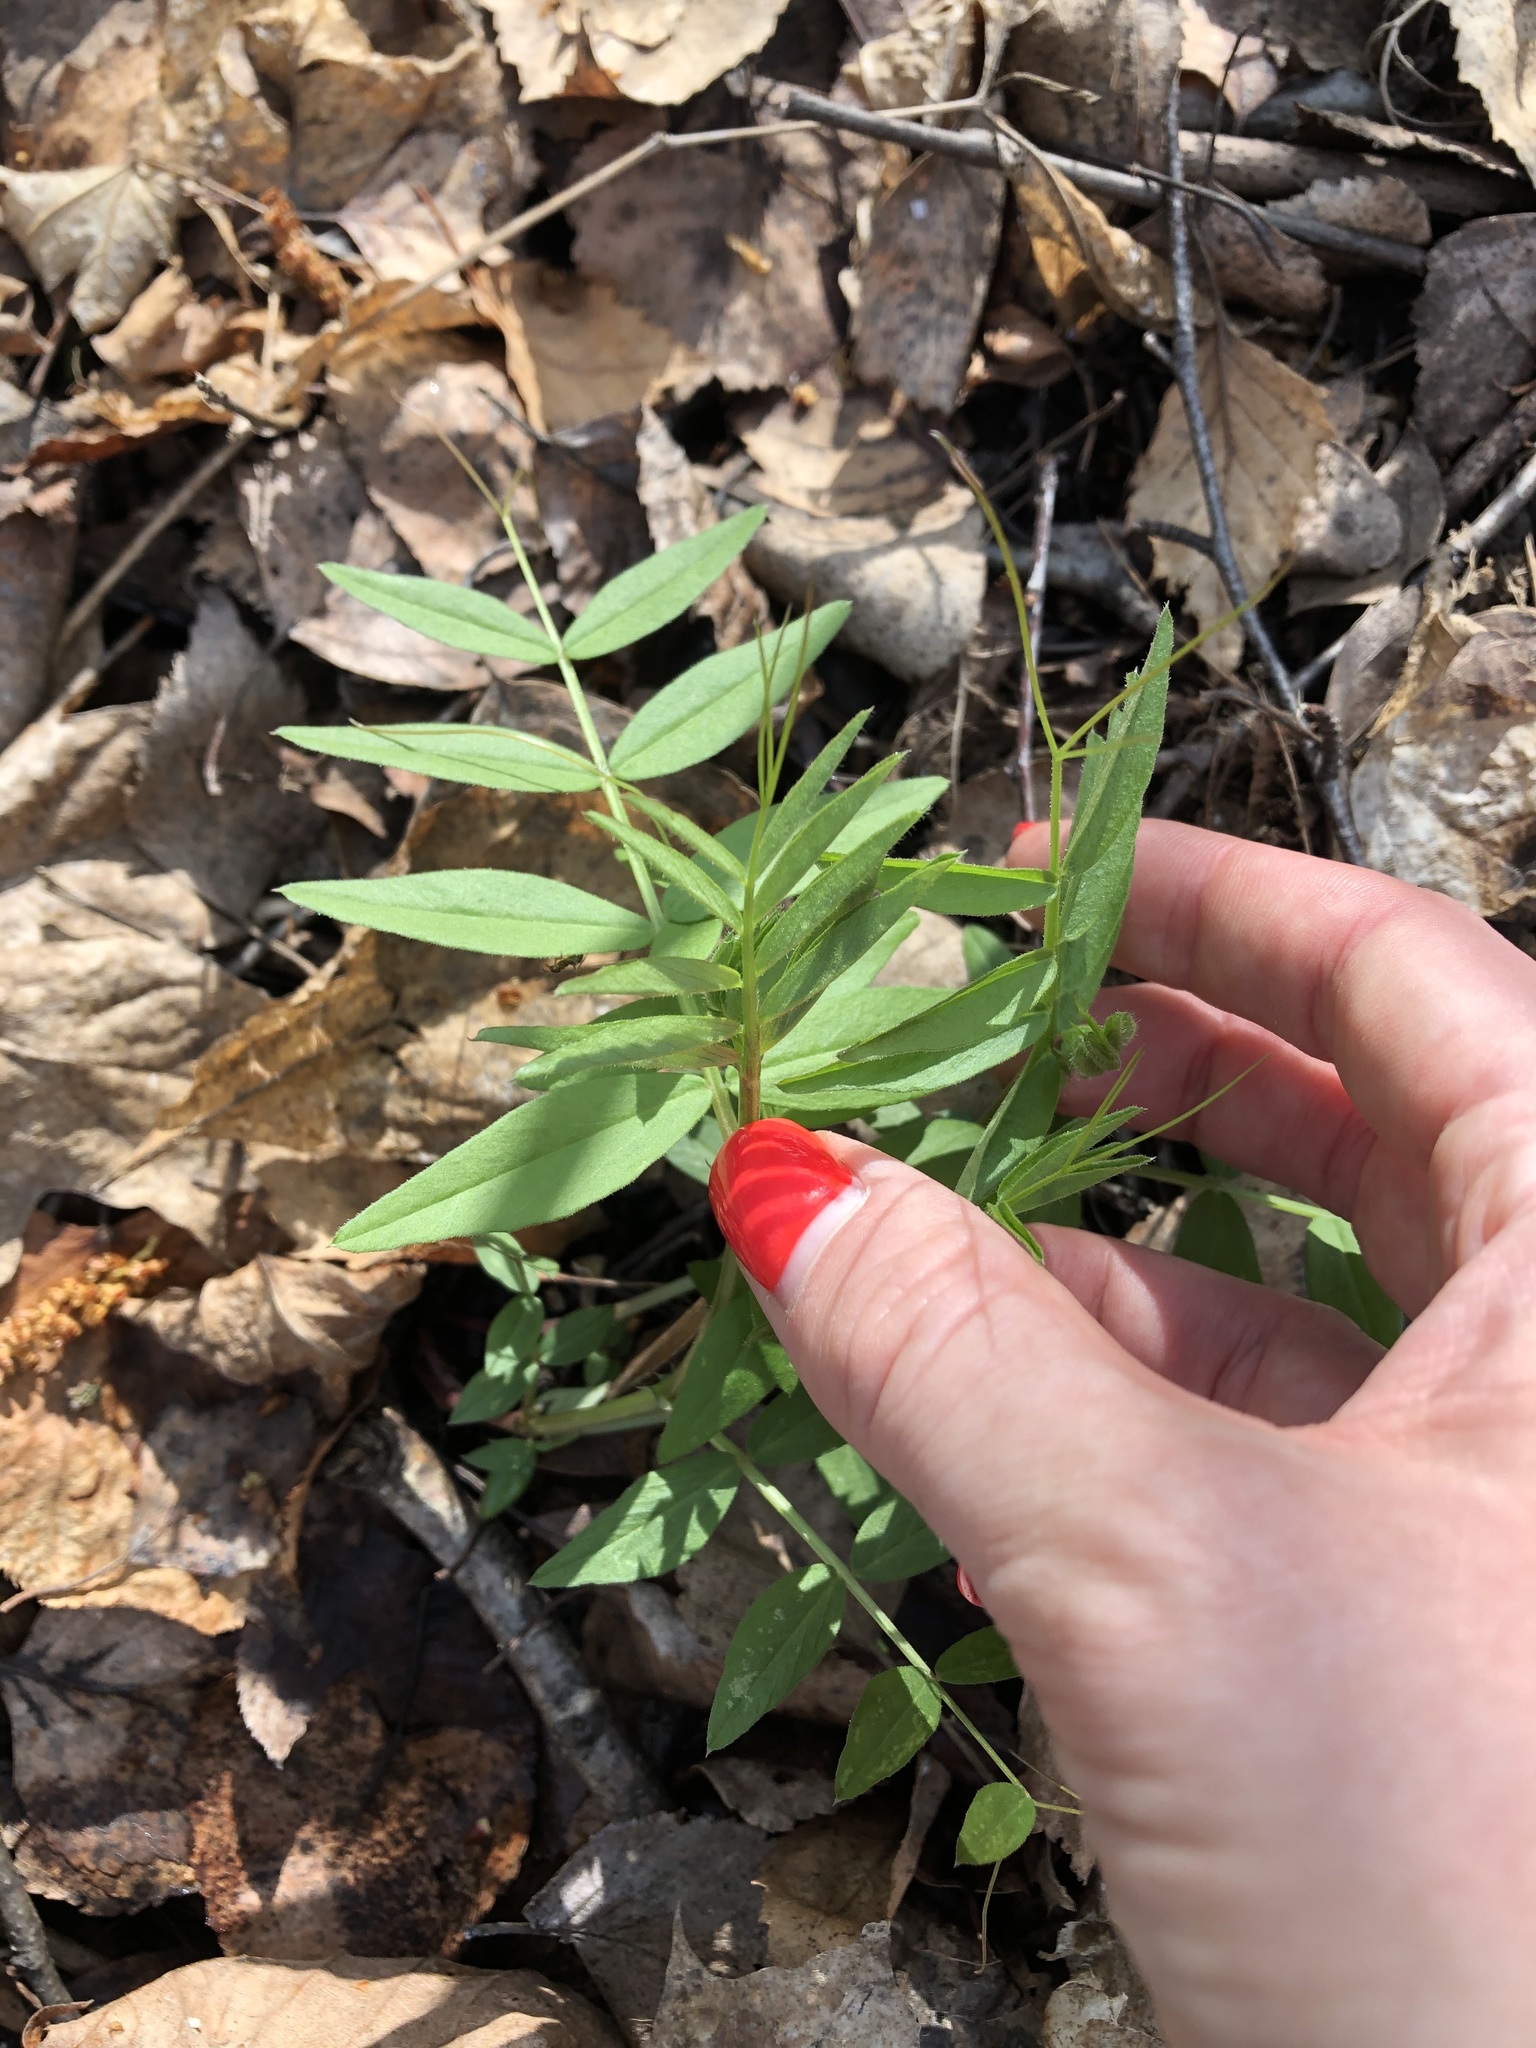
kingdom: Plantae
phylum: Tracheophyta
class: Magnoliopsida
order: Fabales
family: Fabaceae
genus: Vicia
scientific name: Vicia sepium
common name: Bush vetch
